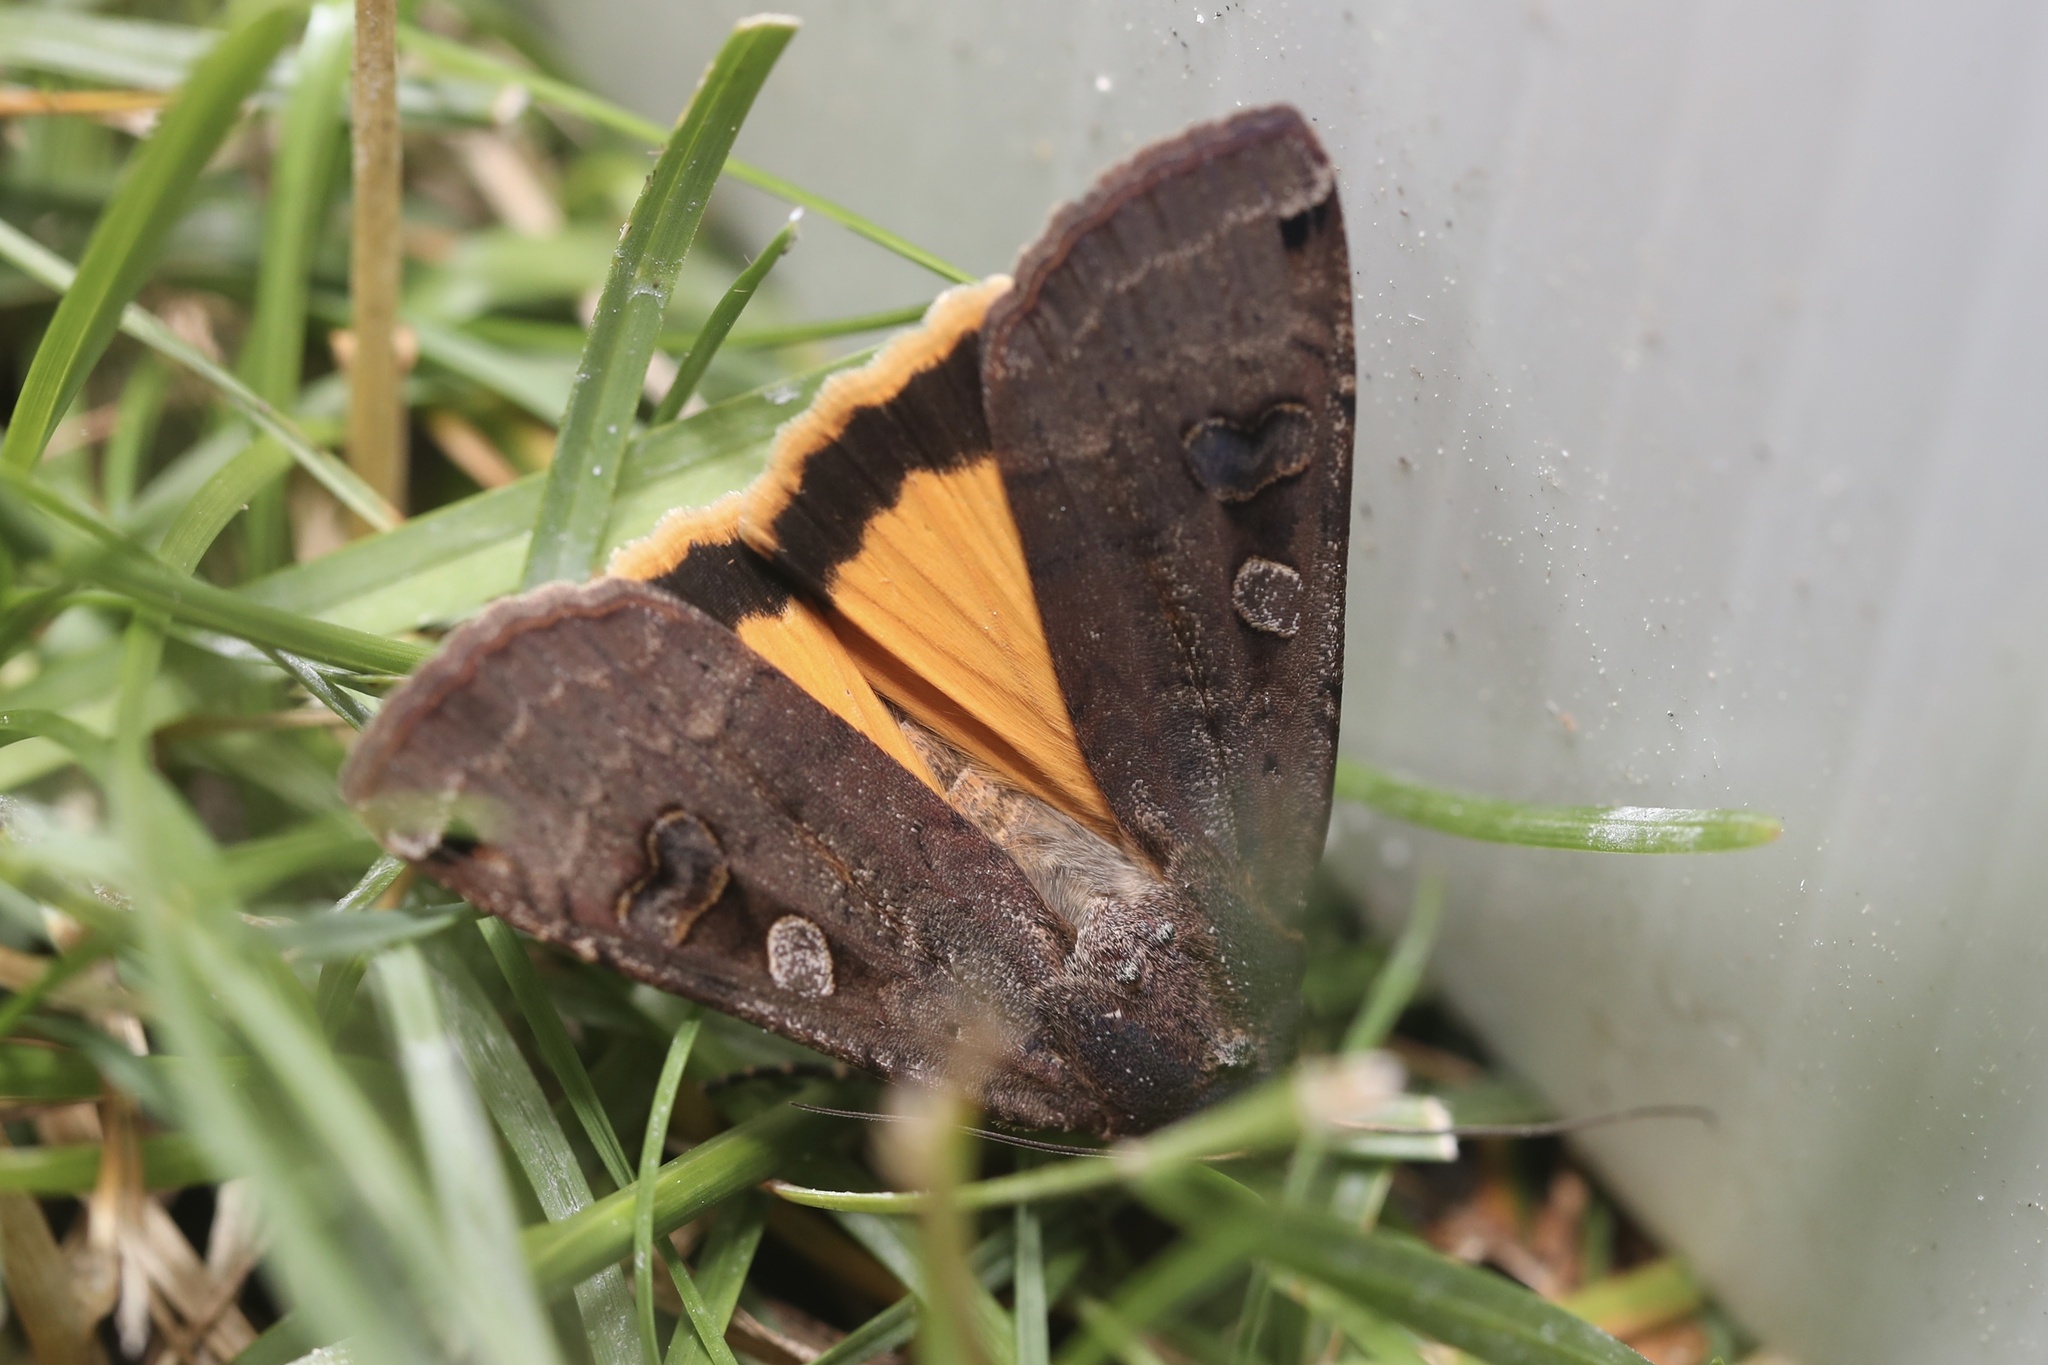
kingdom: Animalia
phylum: Arthropoda
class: Insecta
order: Lepidoptera
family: Noctuidae
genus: Noctua
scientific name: Noctua pronuba
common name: Large yellow underwing
